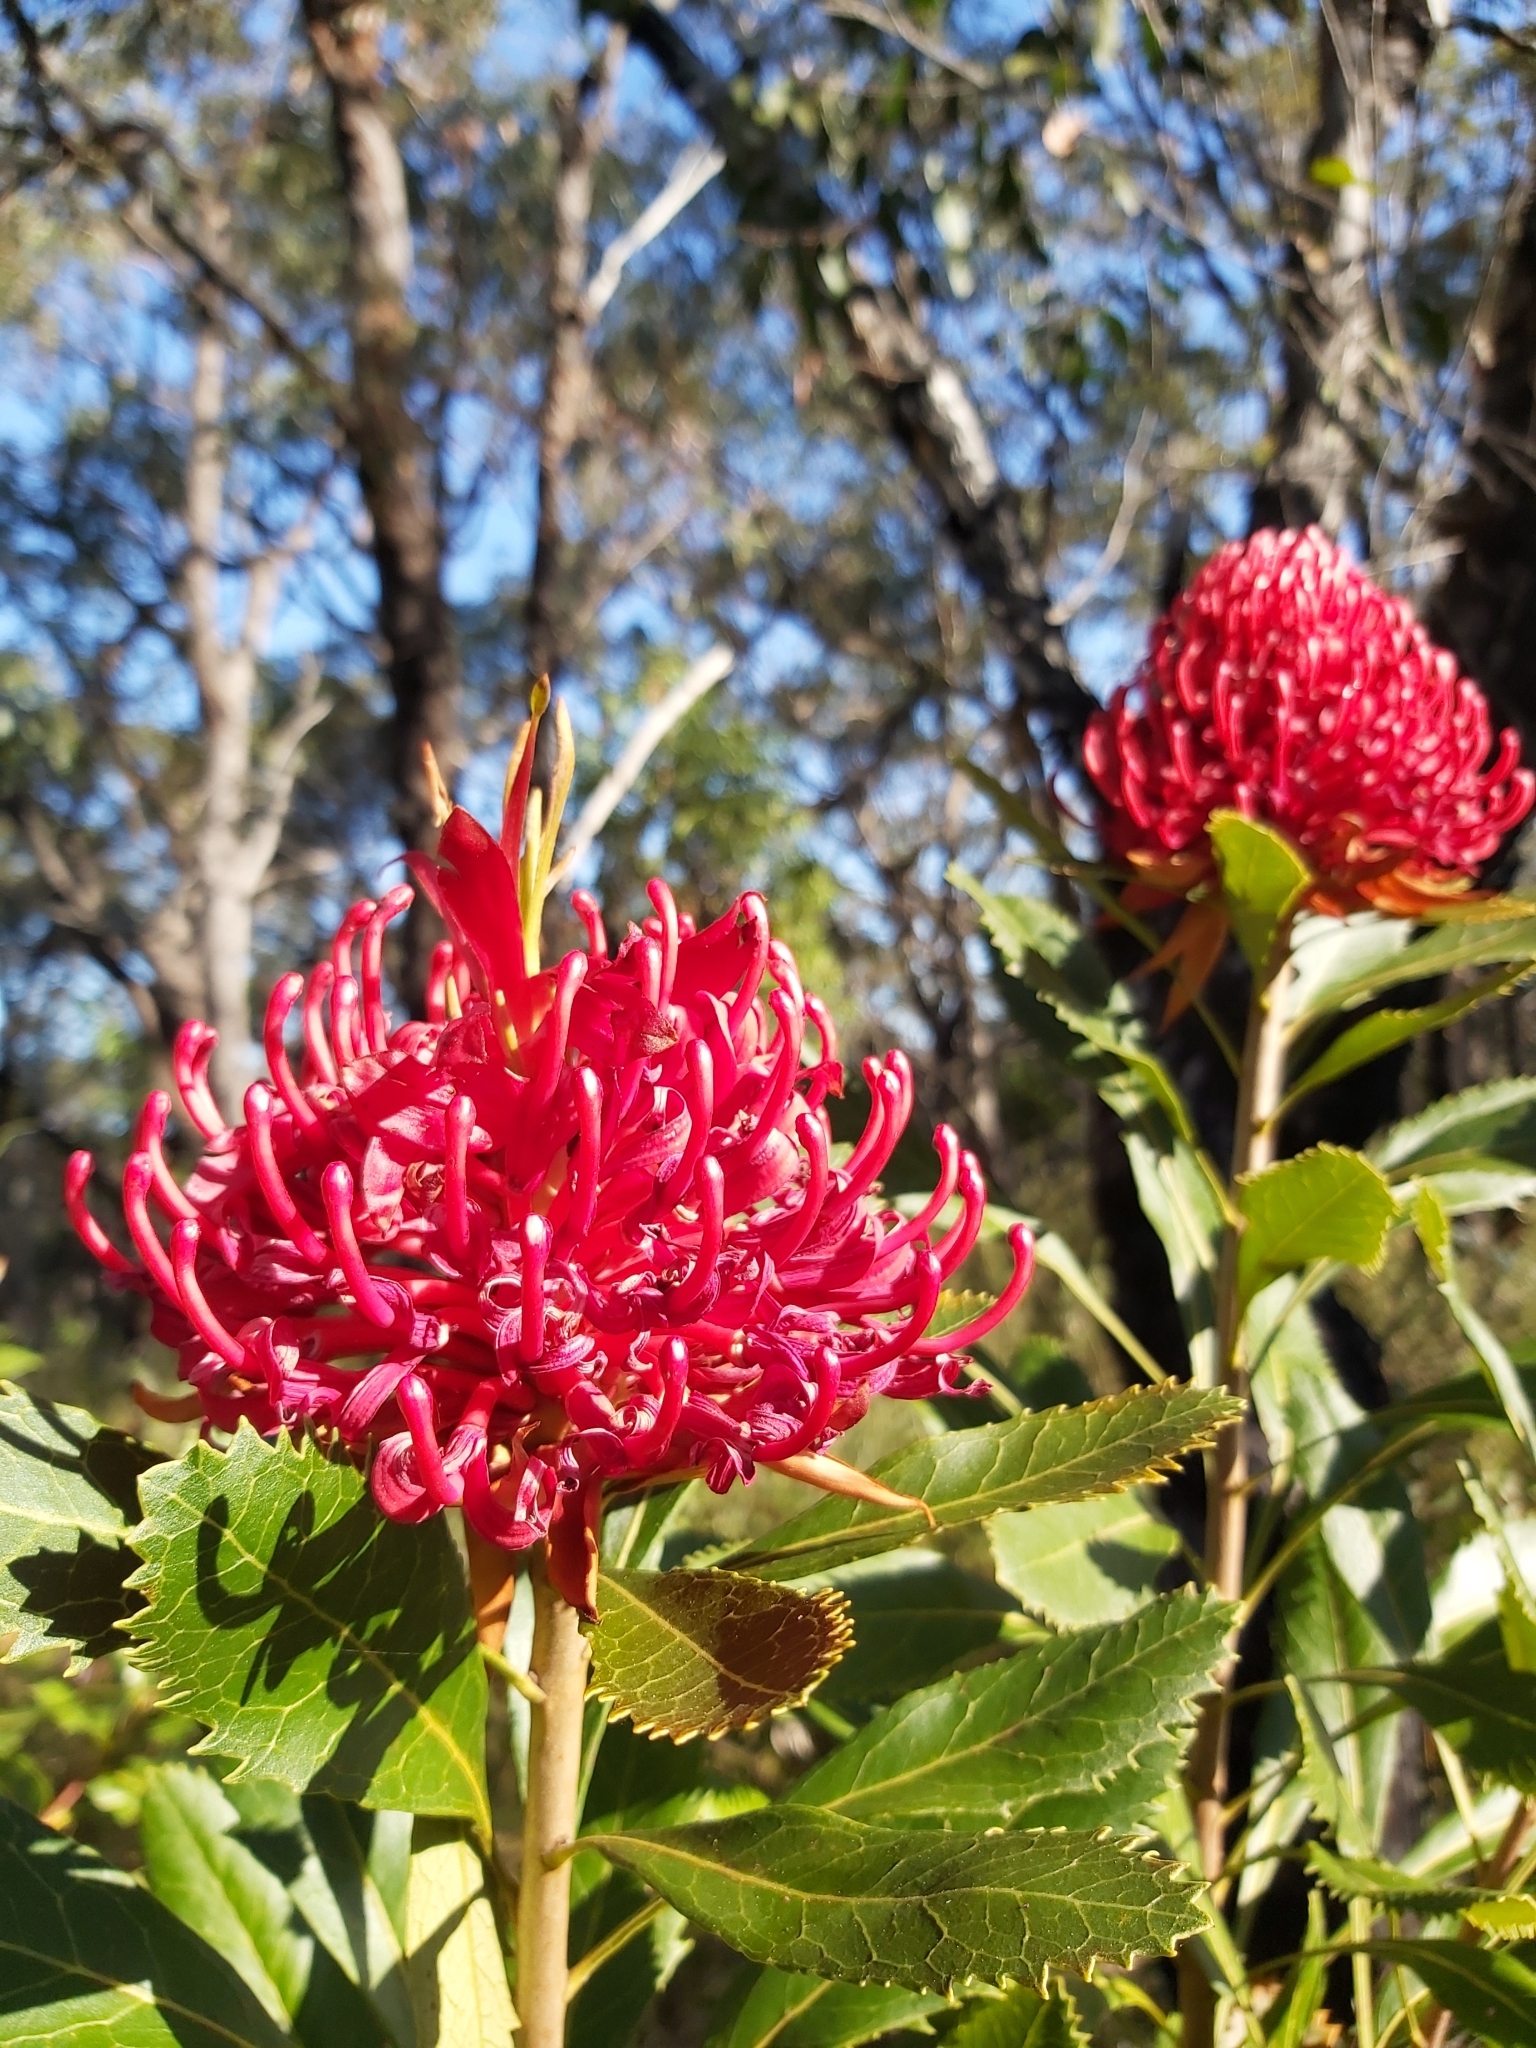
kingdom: Plantae
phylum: Tracheophyta
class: Magnoliopsida
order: Proteales
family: Proteaceae
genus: Telopea
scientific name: Telopea speciosissima
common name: New south wales waratah
